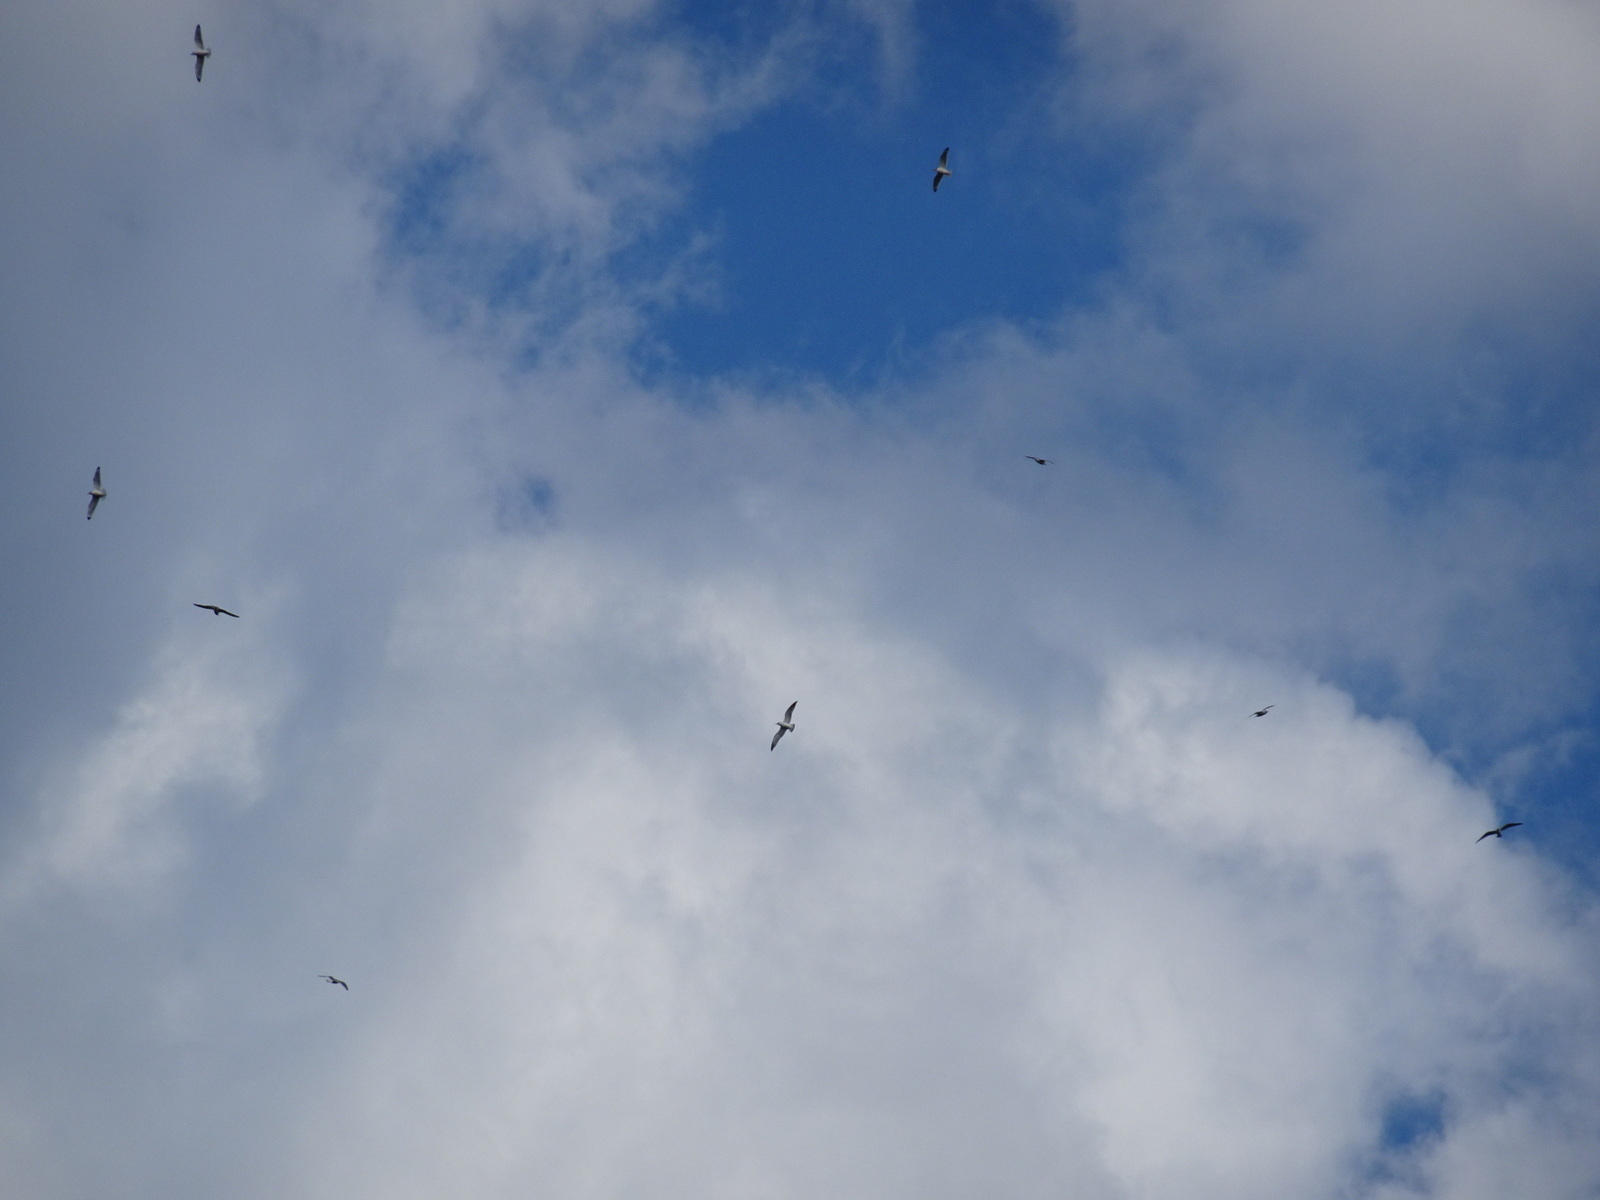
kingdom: Animalia
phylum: Chordata
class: Aves
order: Charadriiformes
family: Laridae
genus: Leucophaeus
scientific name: Leucophaeus pipixcan
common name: Franklin's gull
